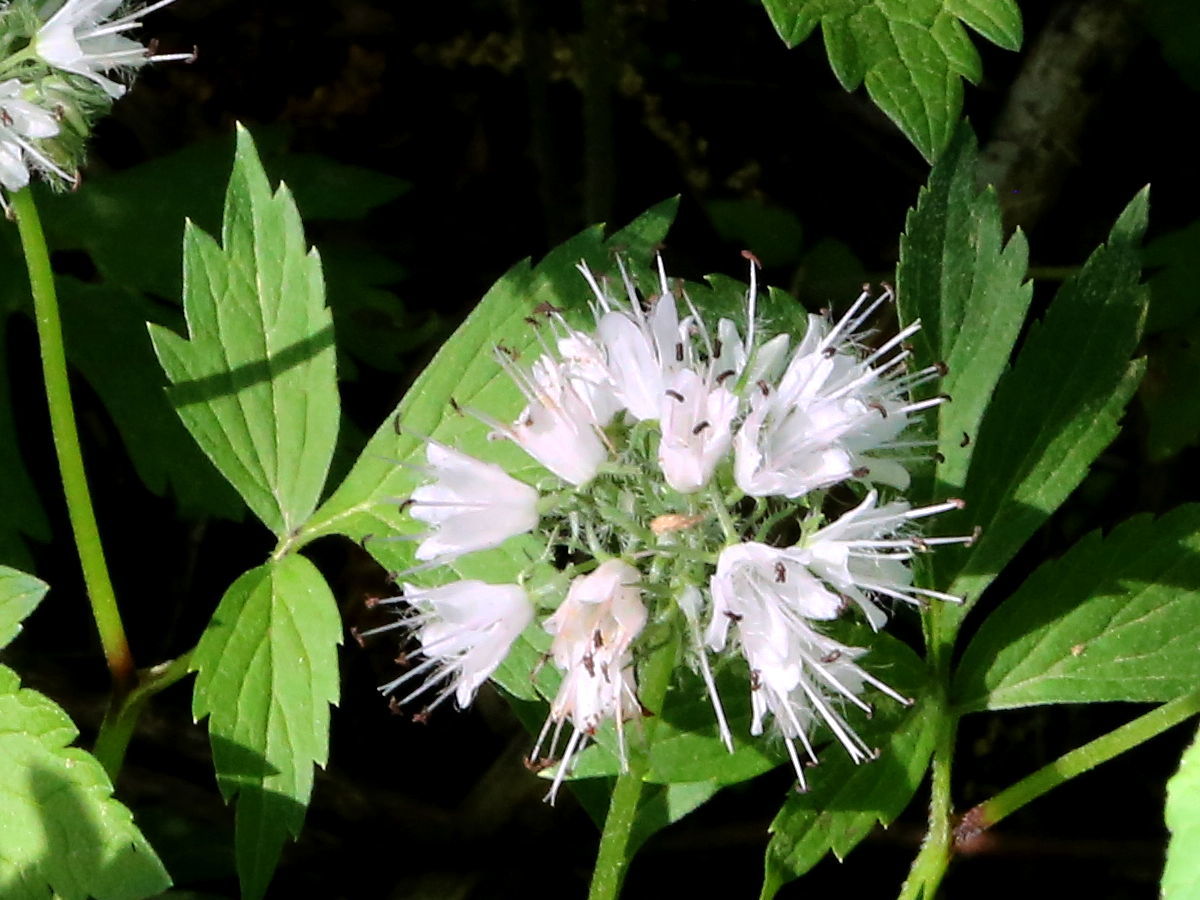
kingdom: Plantae
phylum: Tracheophyta
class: Magnoliopsida
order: Boraginales
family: Hydrophyllaceae
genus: Hydrophyllum
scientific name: Hydrophyllum virginianum
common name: Virginia waterleaf
